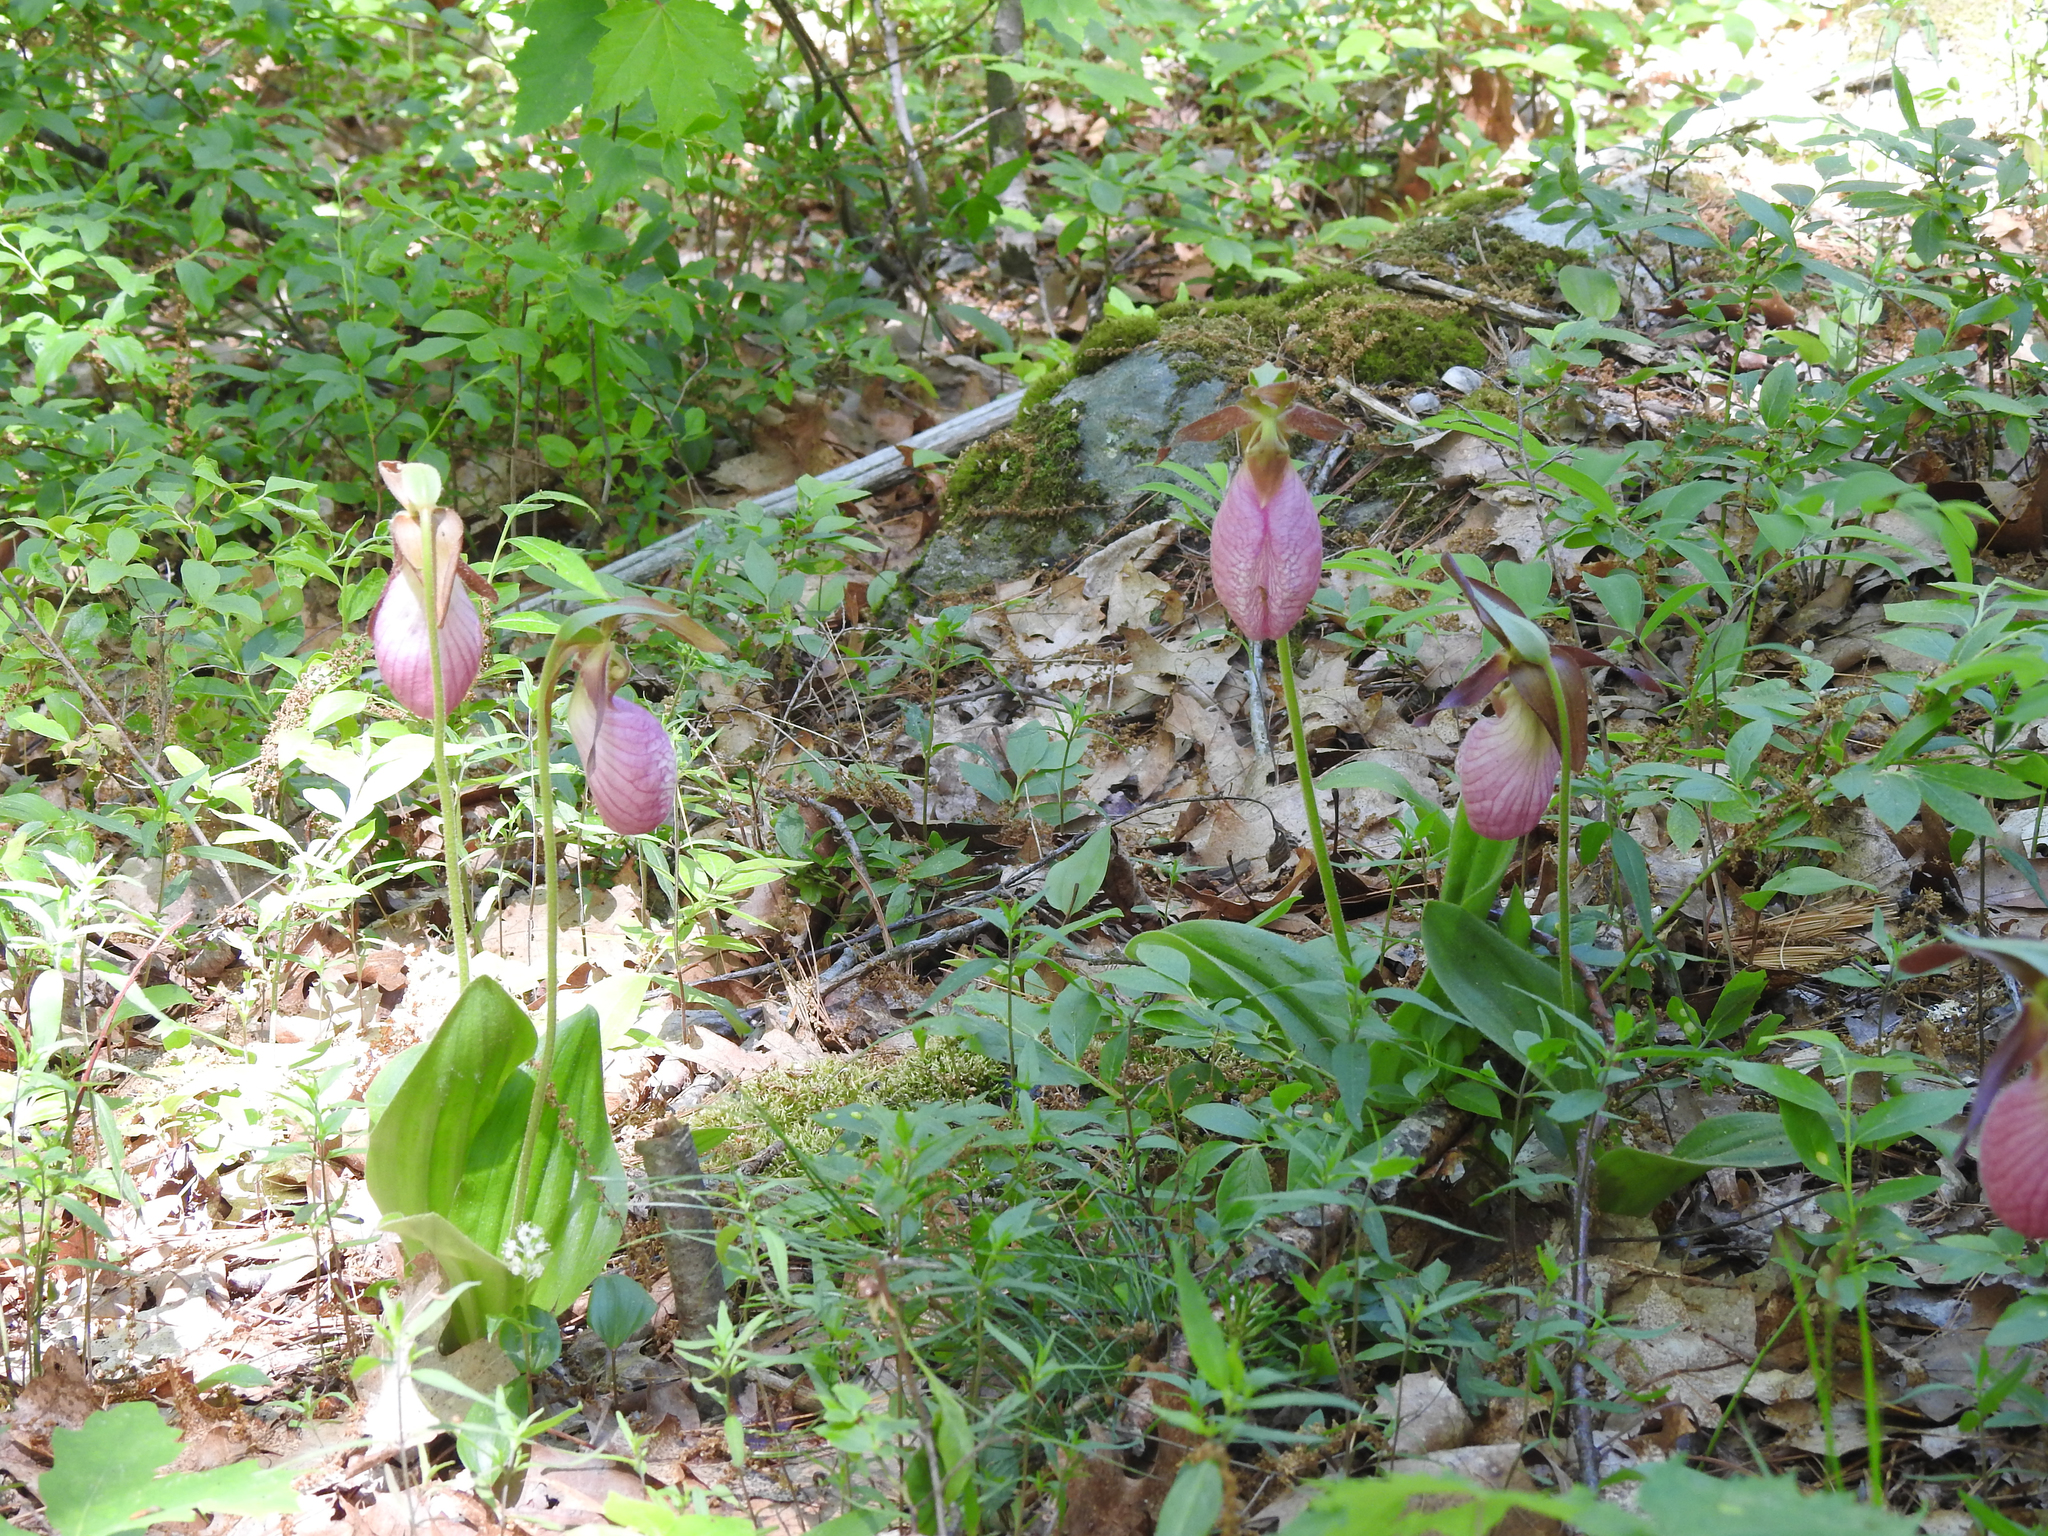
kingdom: Plantae
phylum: Tracheophyta
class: Liliopsida
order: Asparagales
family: Orchidaceae
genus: Cypripedium
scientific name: Cypripedium acaule
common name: Pink lady's-slipper
